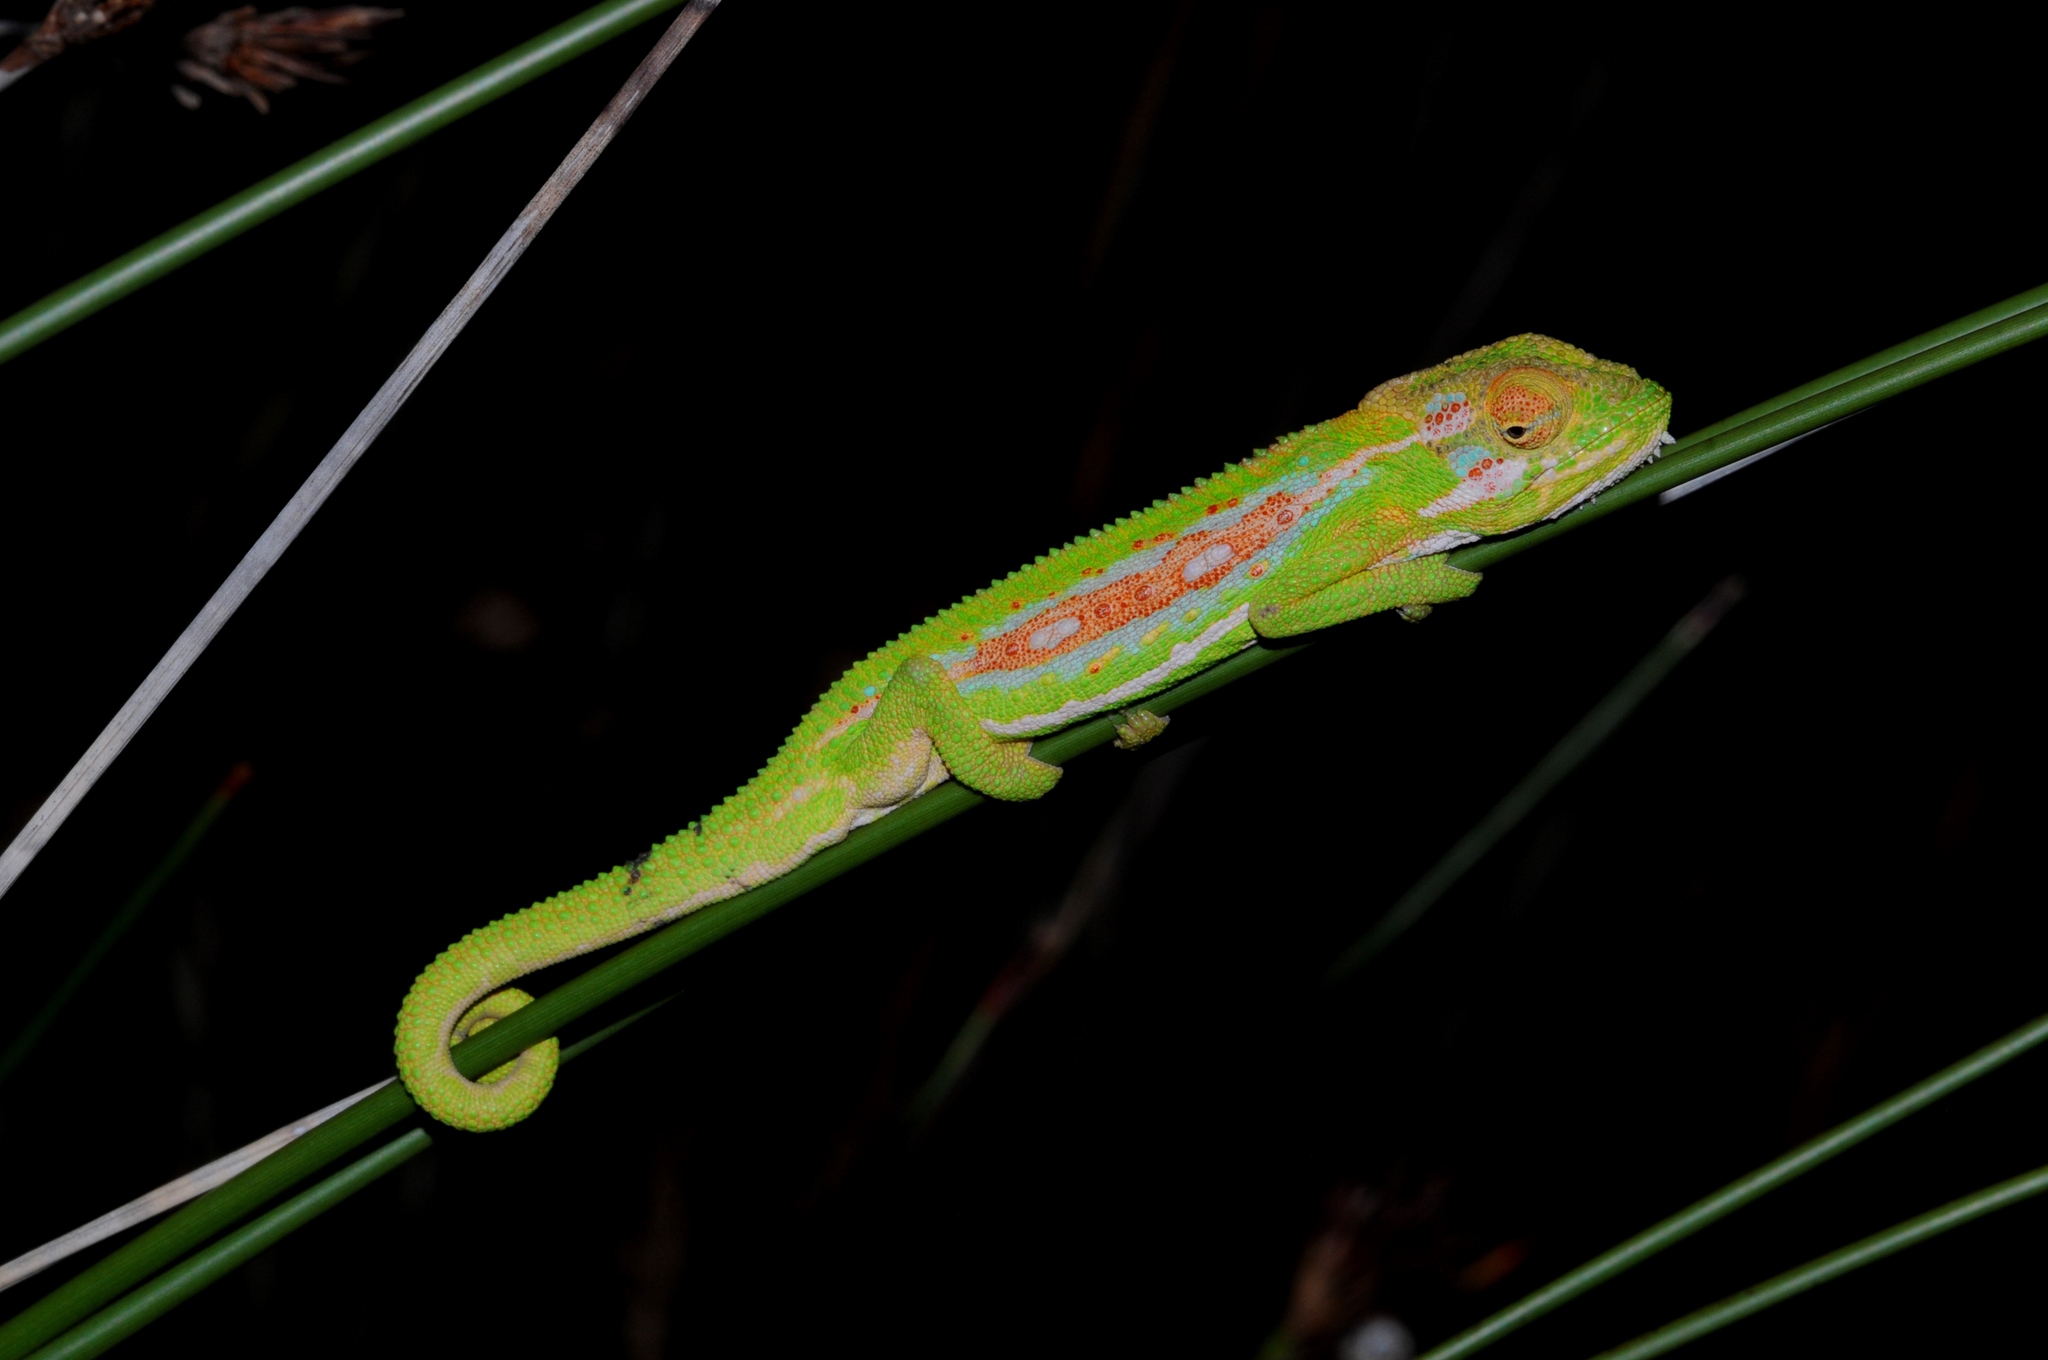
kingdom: Animalia
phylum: Chordata
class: Squamata
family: Chamaeleonidae
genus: Bradypodion
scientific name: Bradypodion pumilum
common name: Cape dwarf chameleon
